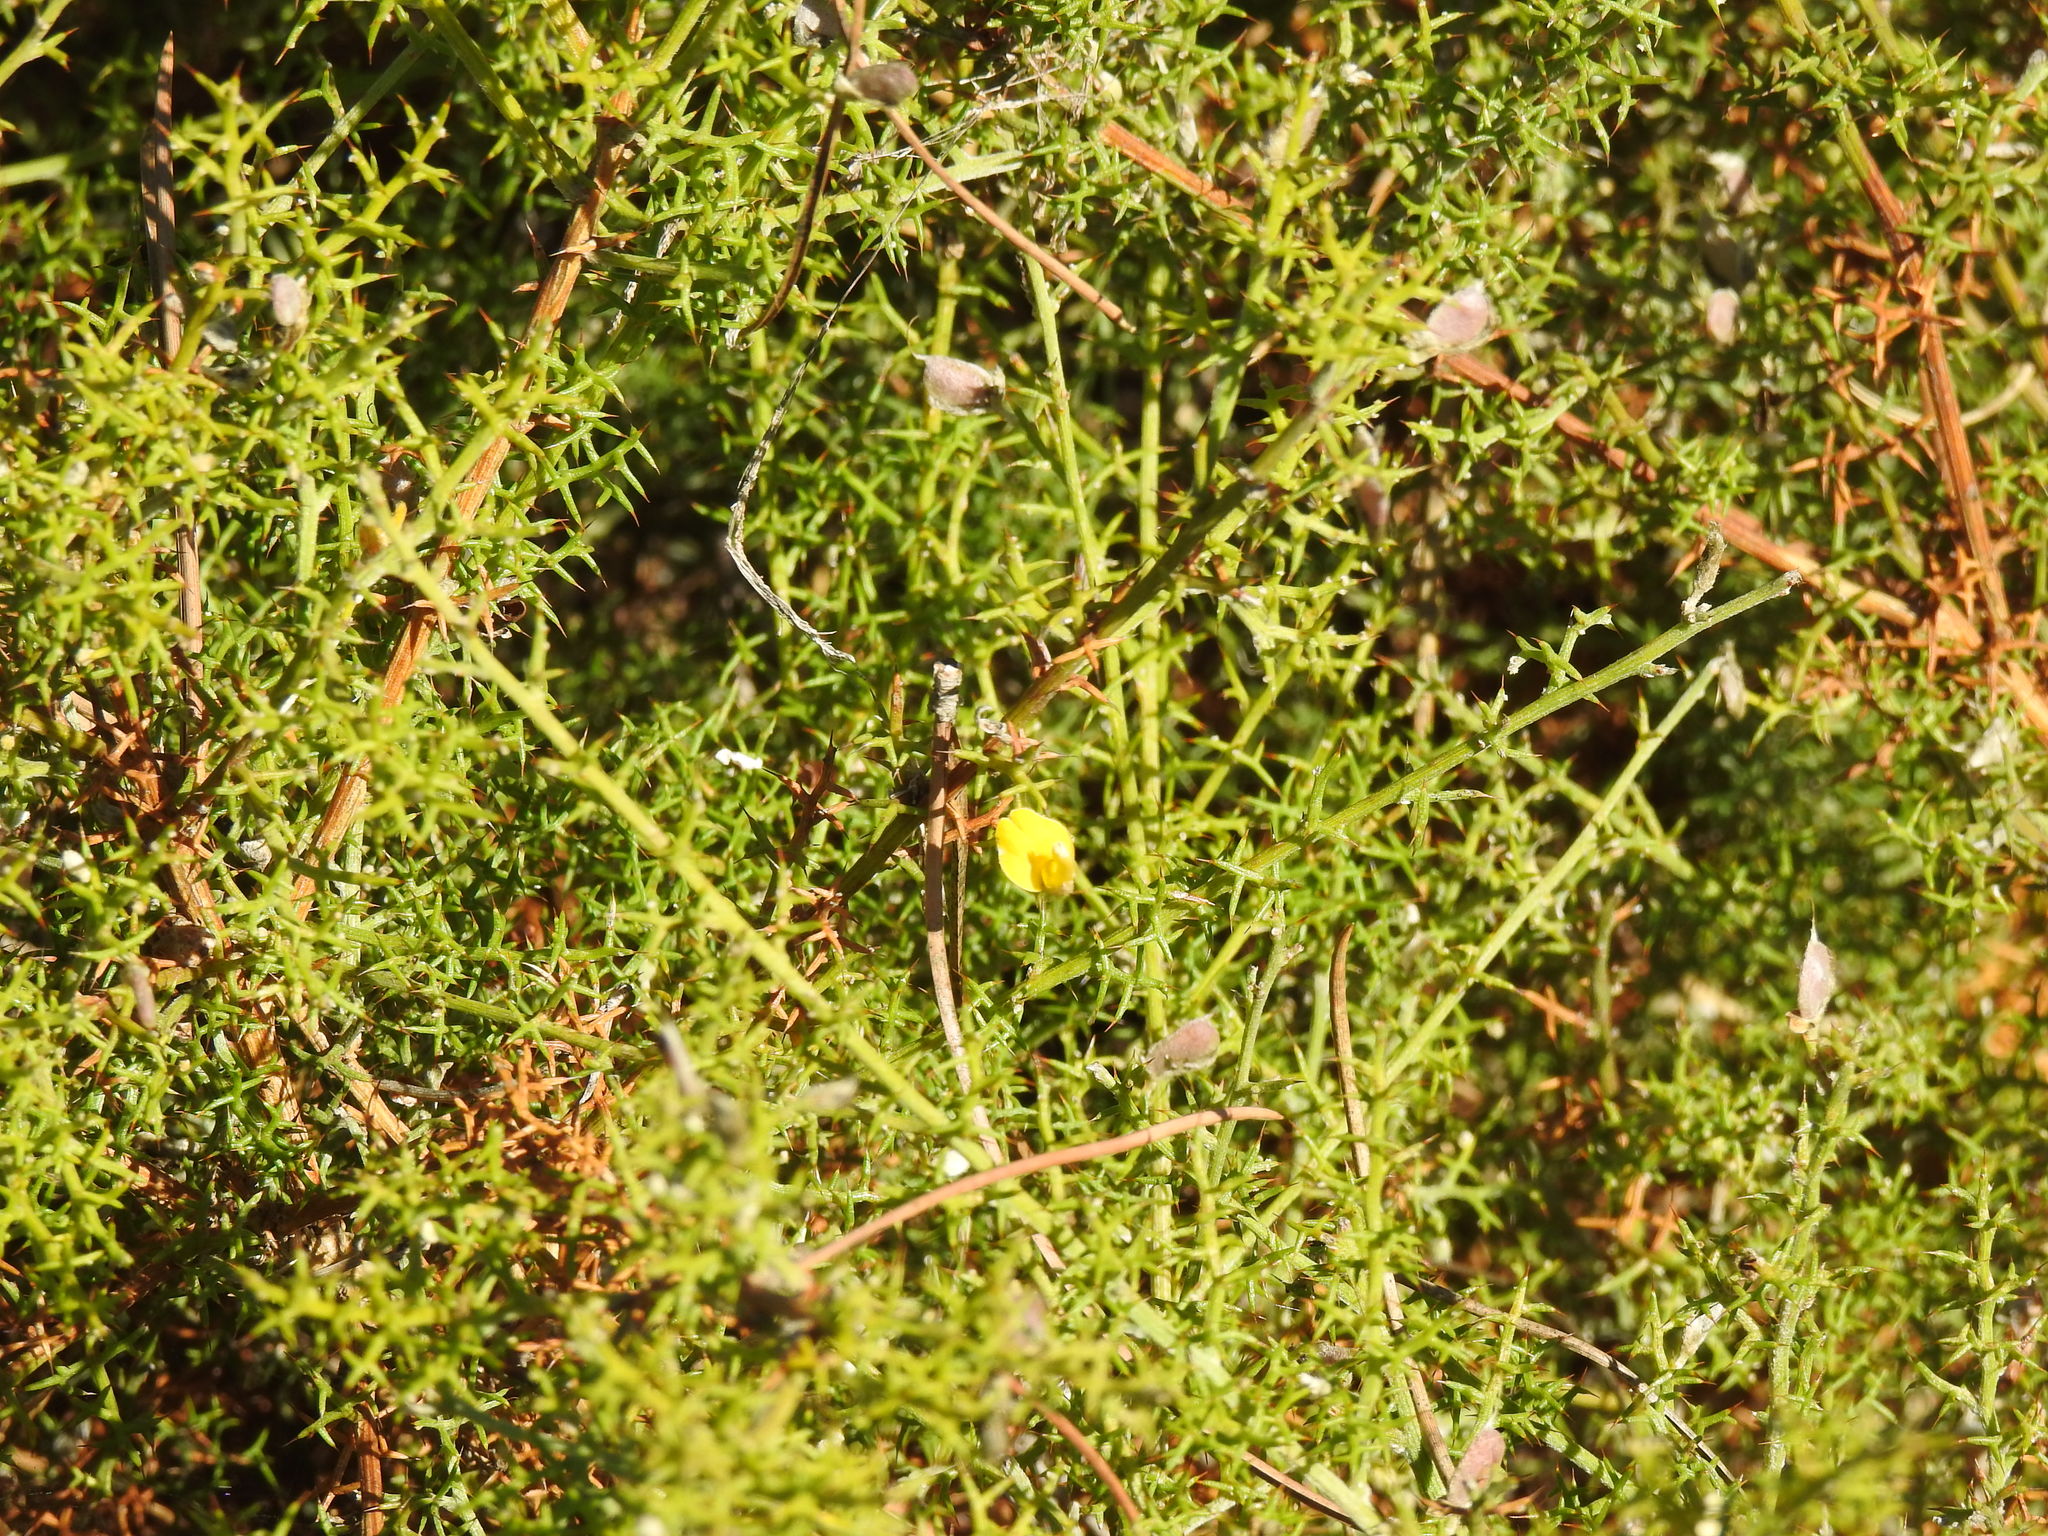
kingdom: Plantae
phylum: Tracheophyta
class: Magnoliopsida
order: Fabales
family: Fabaceae
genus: Stauracanthus
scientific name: Stauracanthus boivinii
